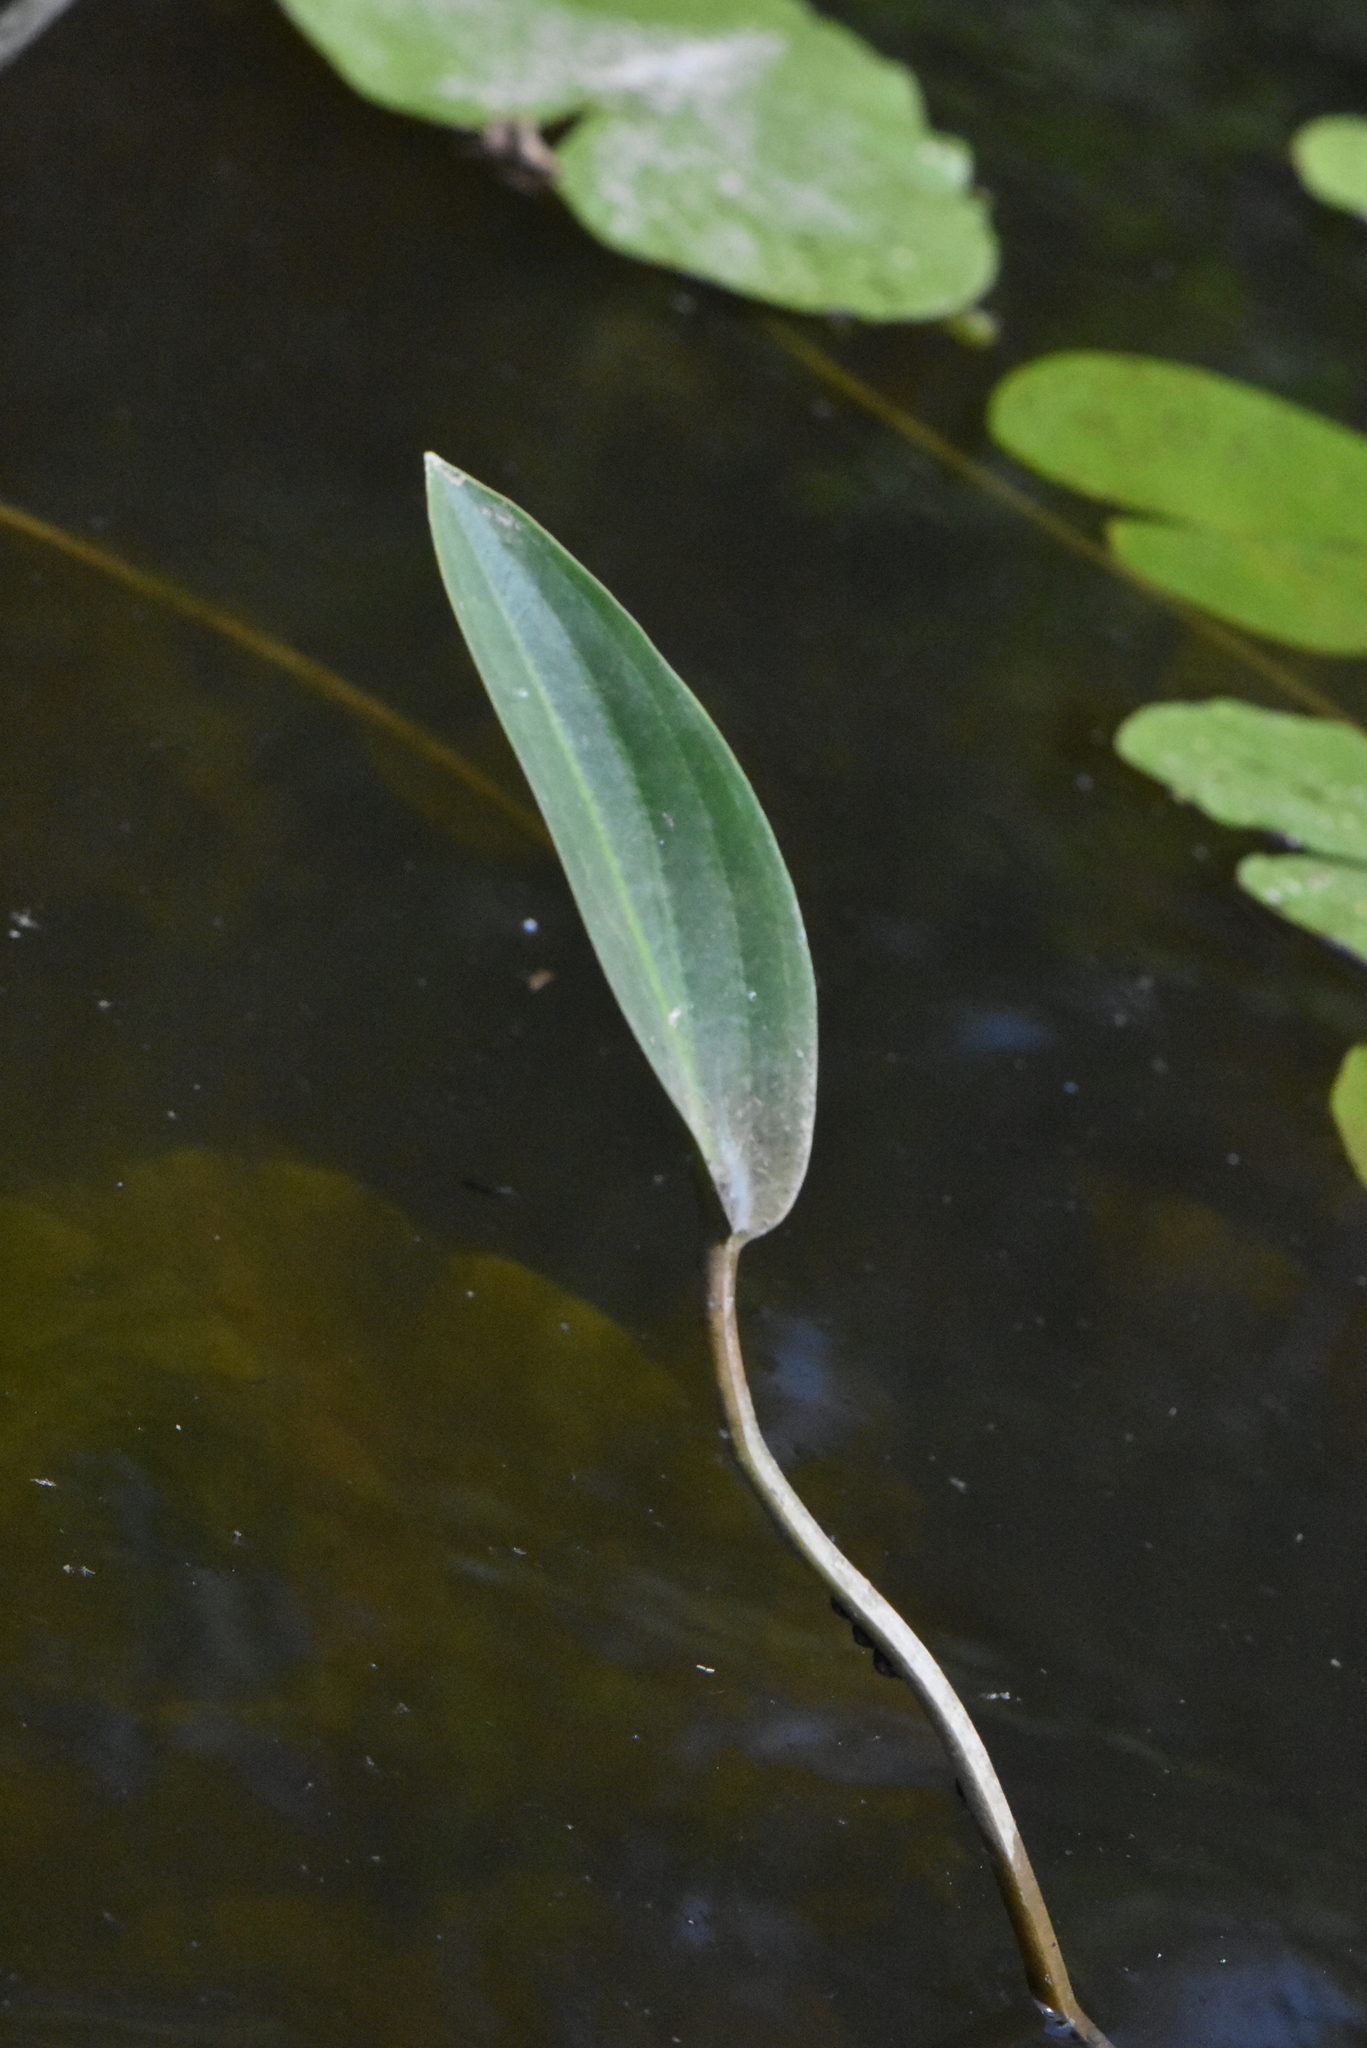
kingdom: Plantae
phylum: Tracheophyta
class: Liliopsida
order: Alismatales
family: Alismataceae
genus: Alisma
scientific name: Alisma plantago-aquatica
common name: Water-plantain
